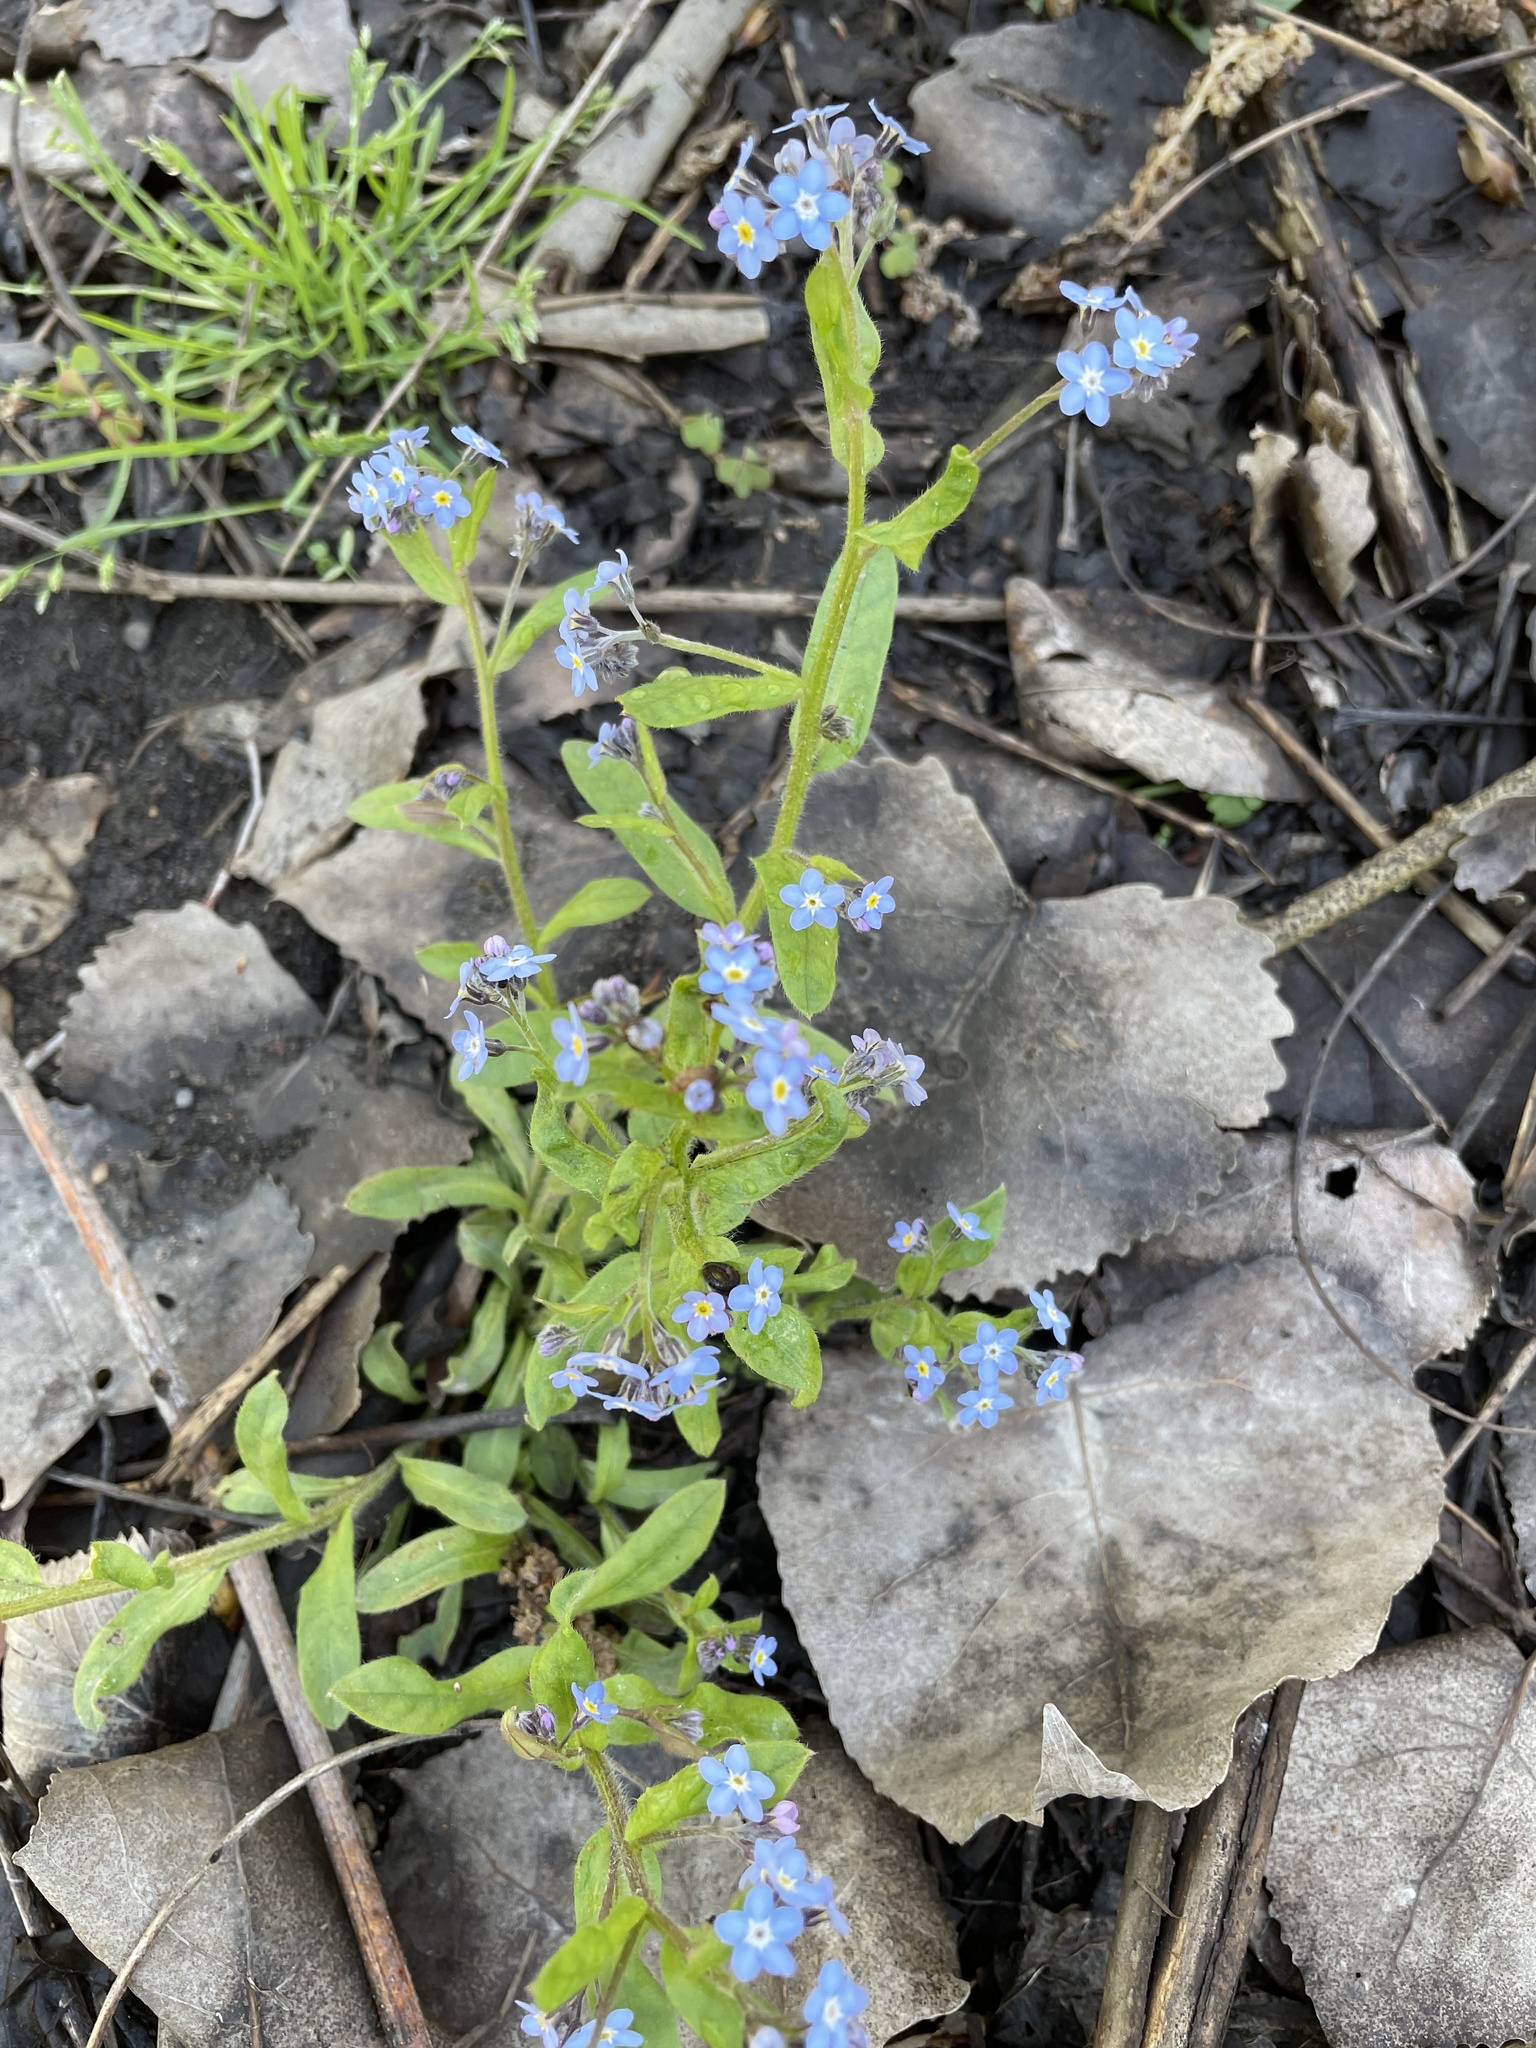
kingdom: Plantae
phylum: Tracheophyta
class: Magnoliopsida
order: Boraginales
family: Boraginaceae
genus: Myosotis
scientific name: Myosotis sylvatica
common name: Wood forget-me-not
